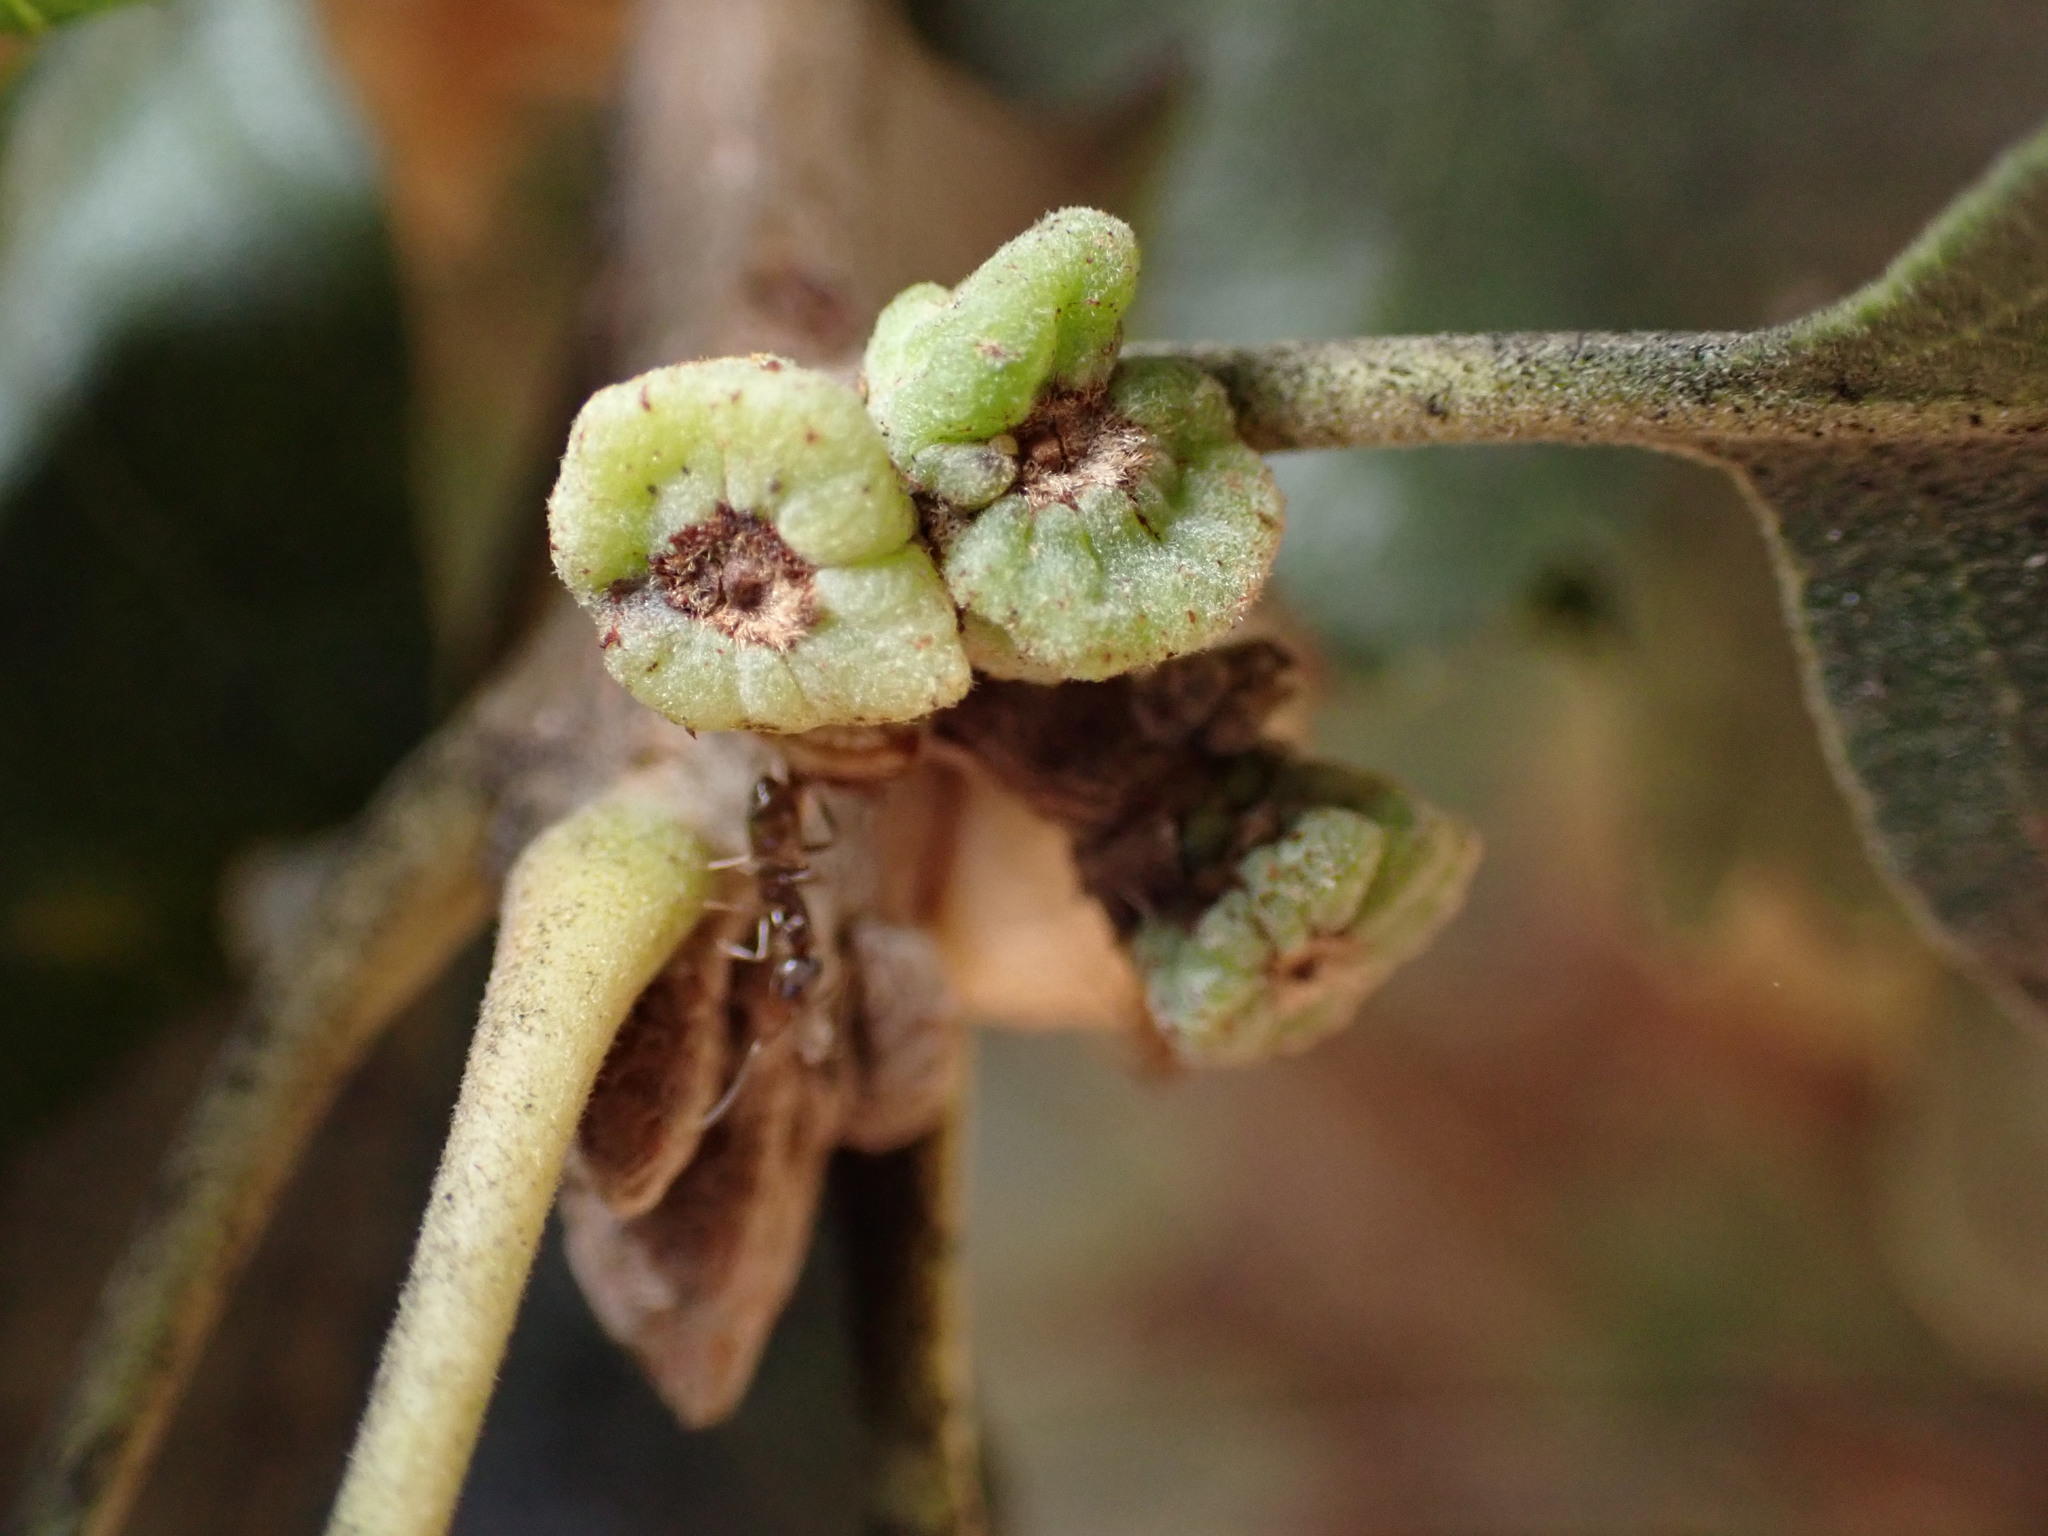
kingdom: Animalia
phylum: Arthropoda
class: Insecta
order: Hymenoptera
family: Cynipidae
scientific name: Cynipidae
